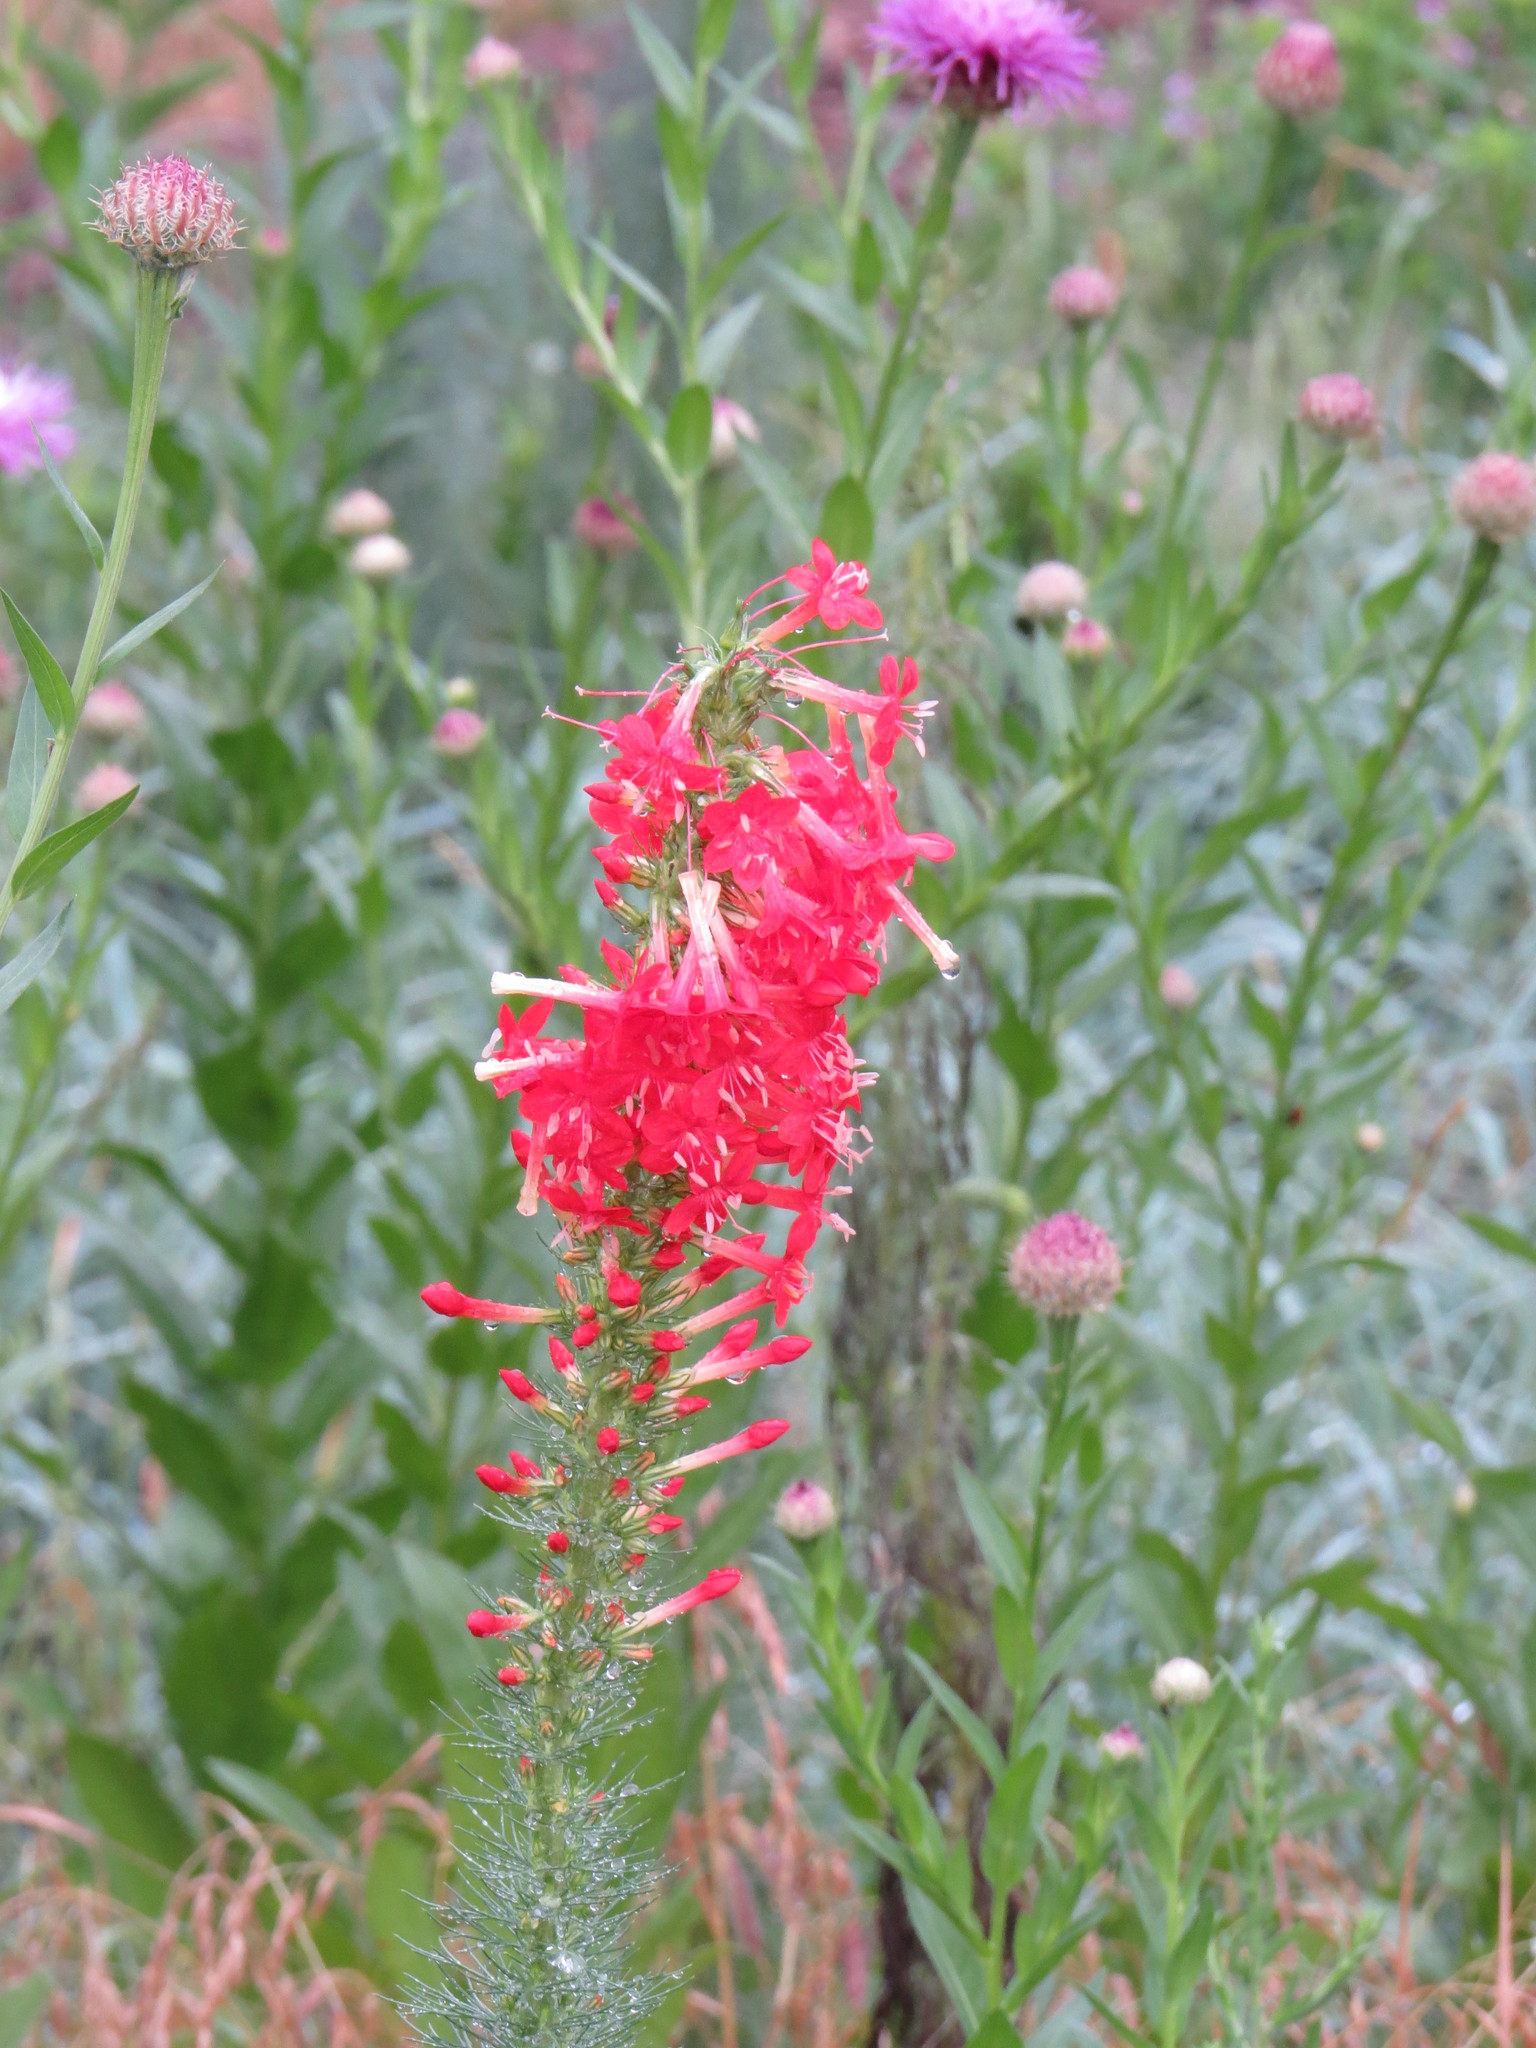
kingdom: Plantae
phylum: Tracheophyta
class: Magnoliopsida
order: Ericales
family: Polemoniaceae
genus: Ipomopsis
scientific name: Ipomopsis rubra
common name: Skyrocket
